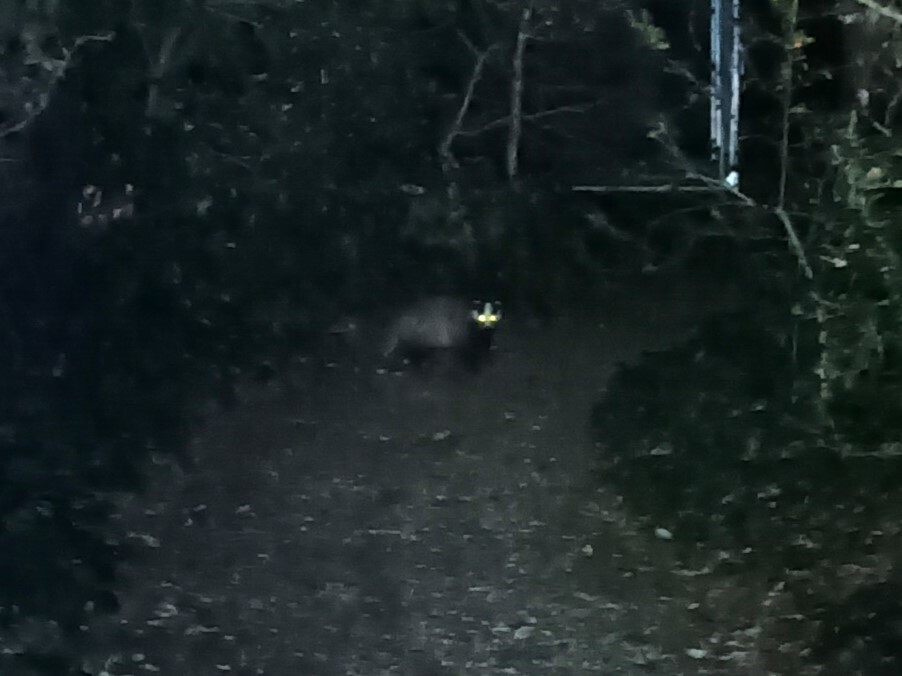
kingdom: Animalia
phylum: Chordata
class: Mammalia
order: Carnivora
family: Mustelidae
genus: Meles
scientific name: Meles meles
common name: Eurasian badger
